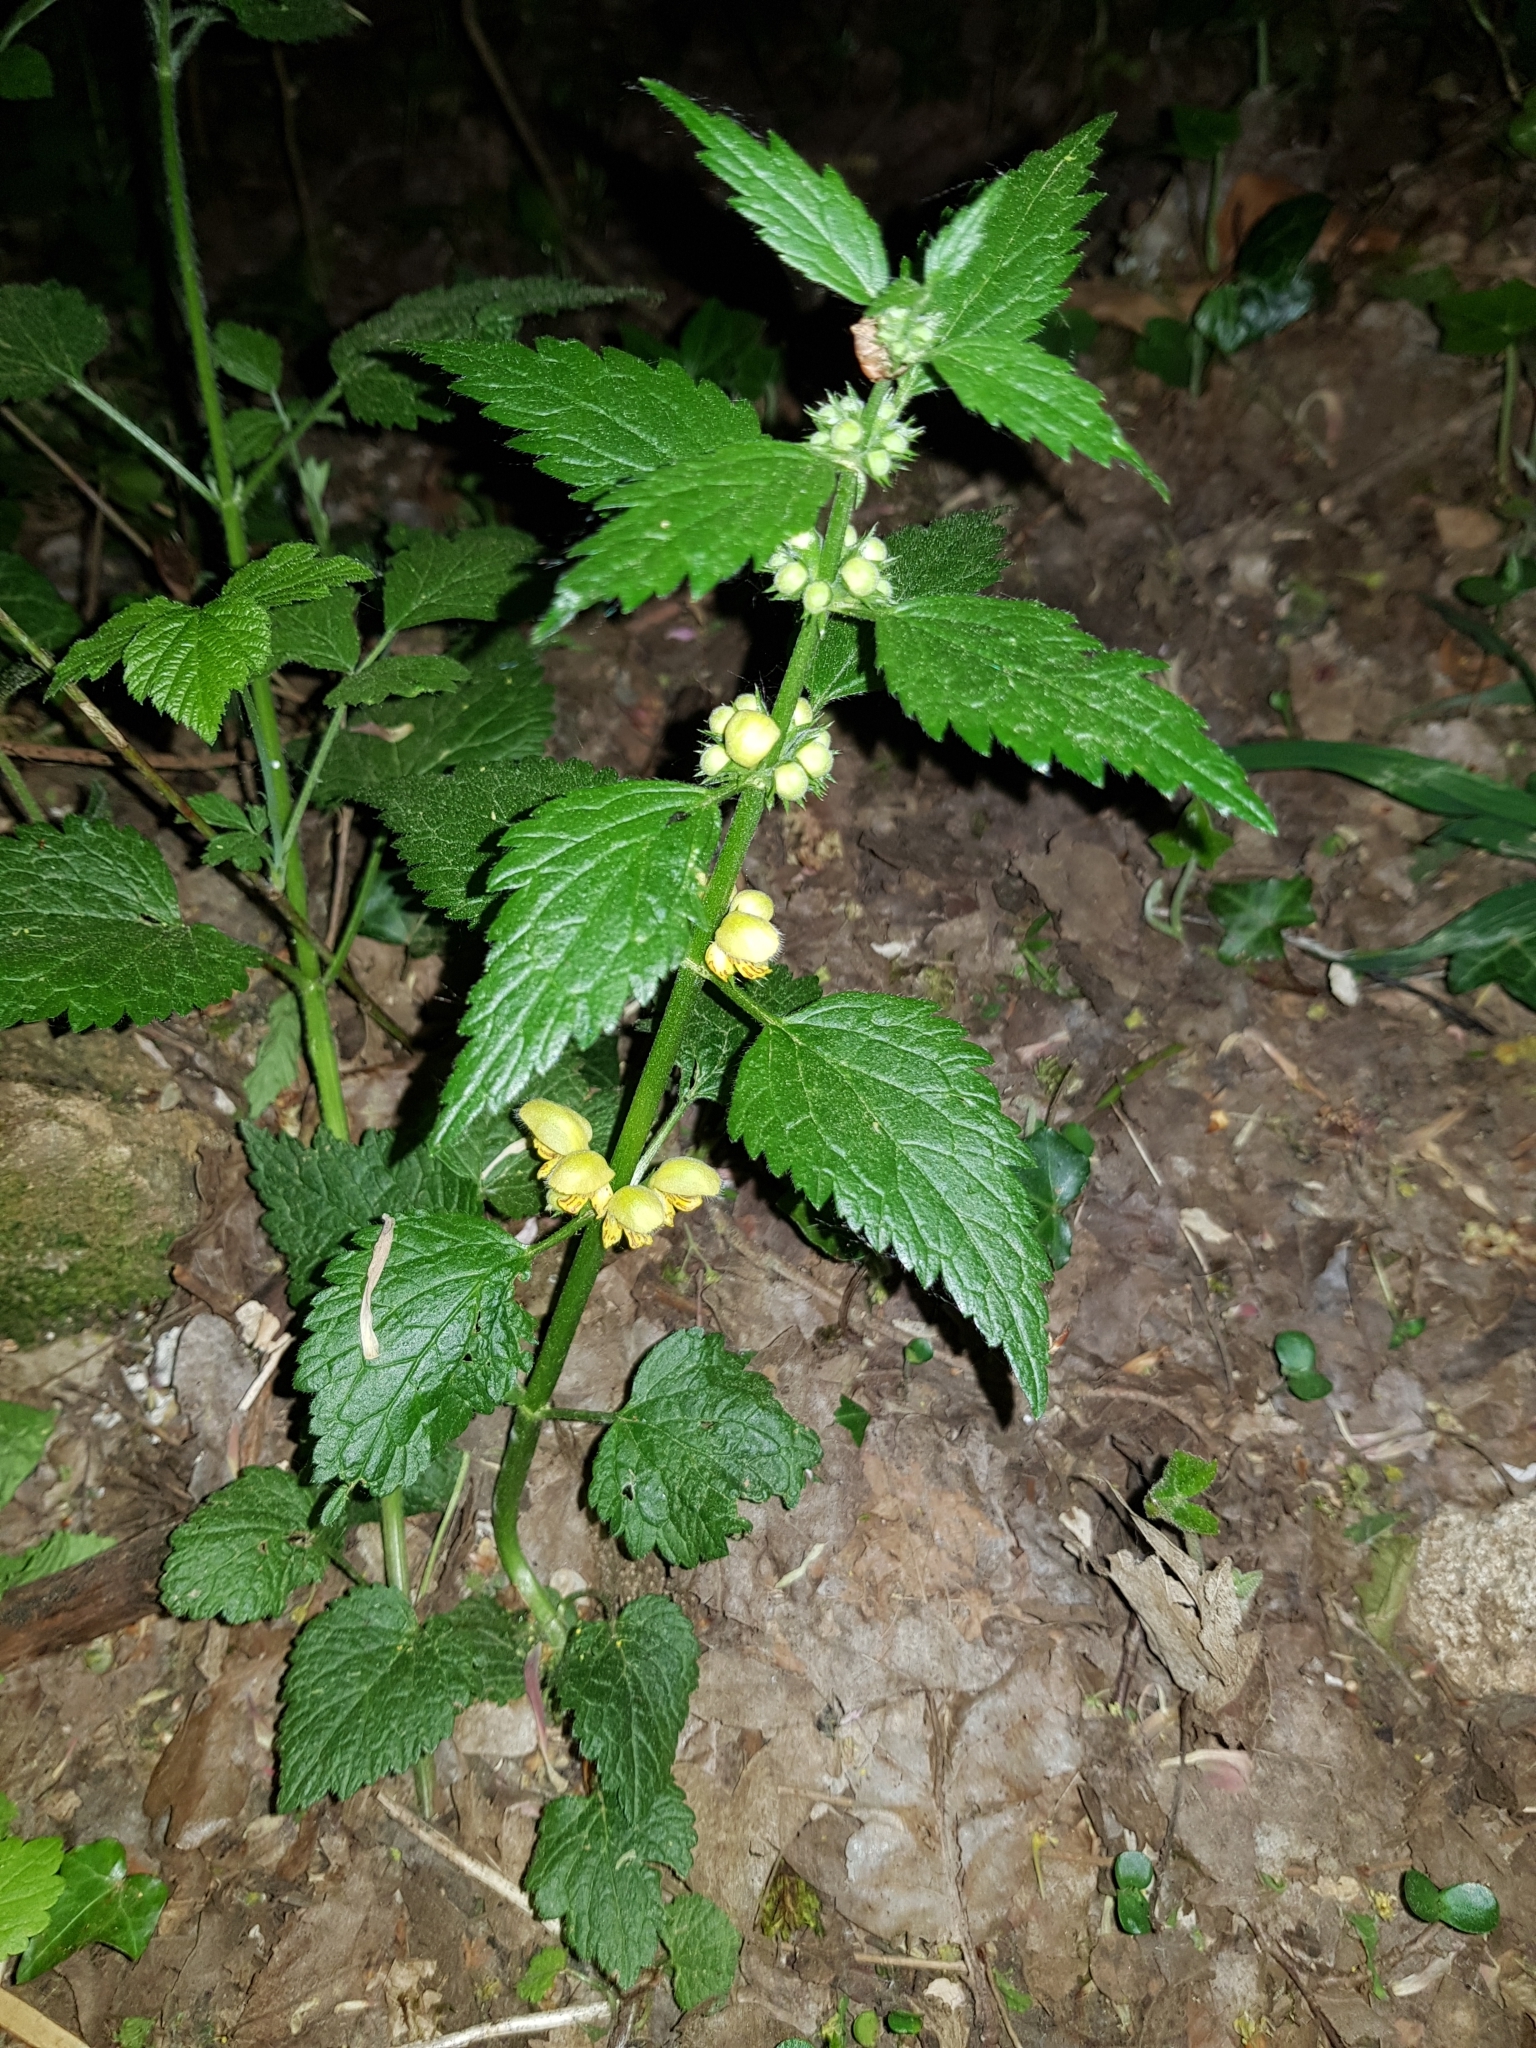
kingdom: Plantae
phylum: Tracheophyta
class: Magnoliopsida
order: Lamiales
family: Lamiaceae
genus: Lamium
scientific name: Lamium galeobdolon
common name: Yellow archangel
